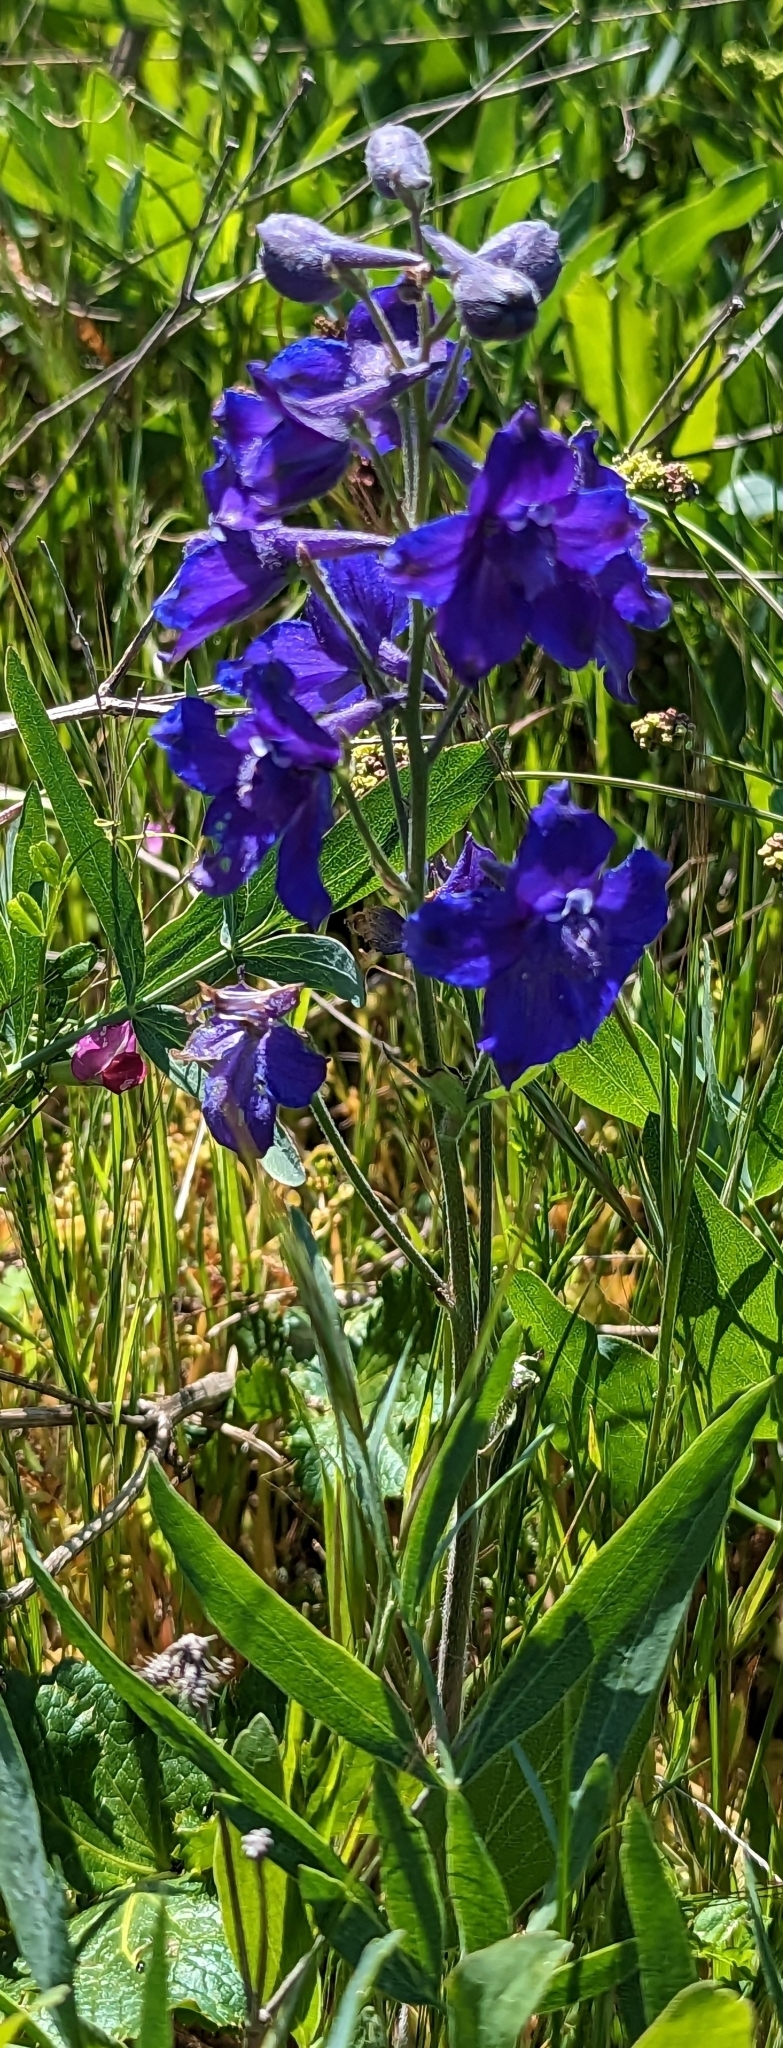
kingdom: Plantae
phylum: Tracheophyta
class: Magnoliopsida
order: Ranunculales
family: Ranunculaceae
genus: Delphinium
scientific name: Delphinium menziesii
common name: Menzies's larkspur
